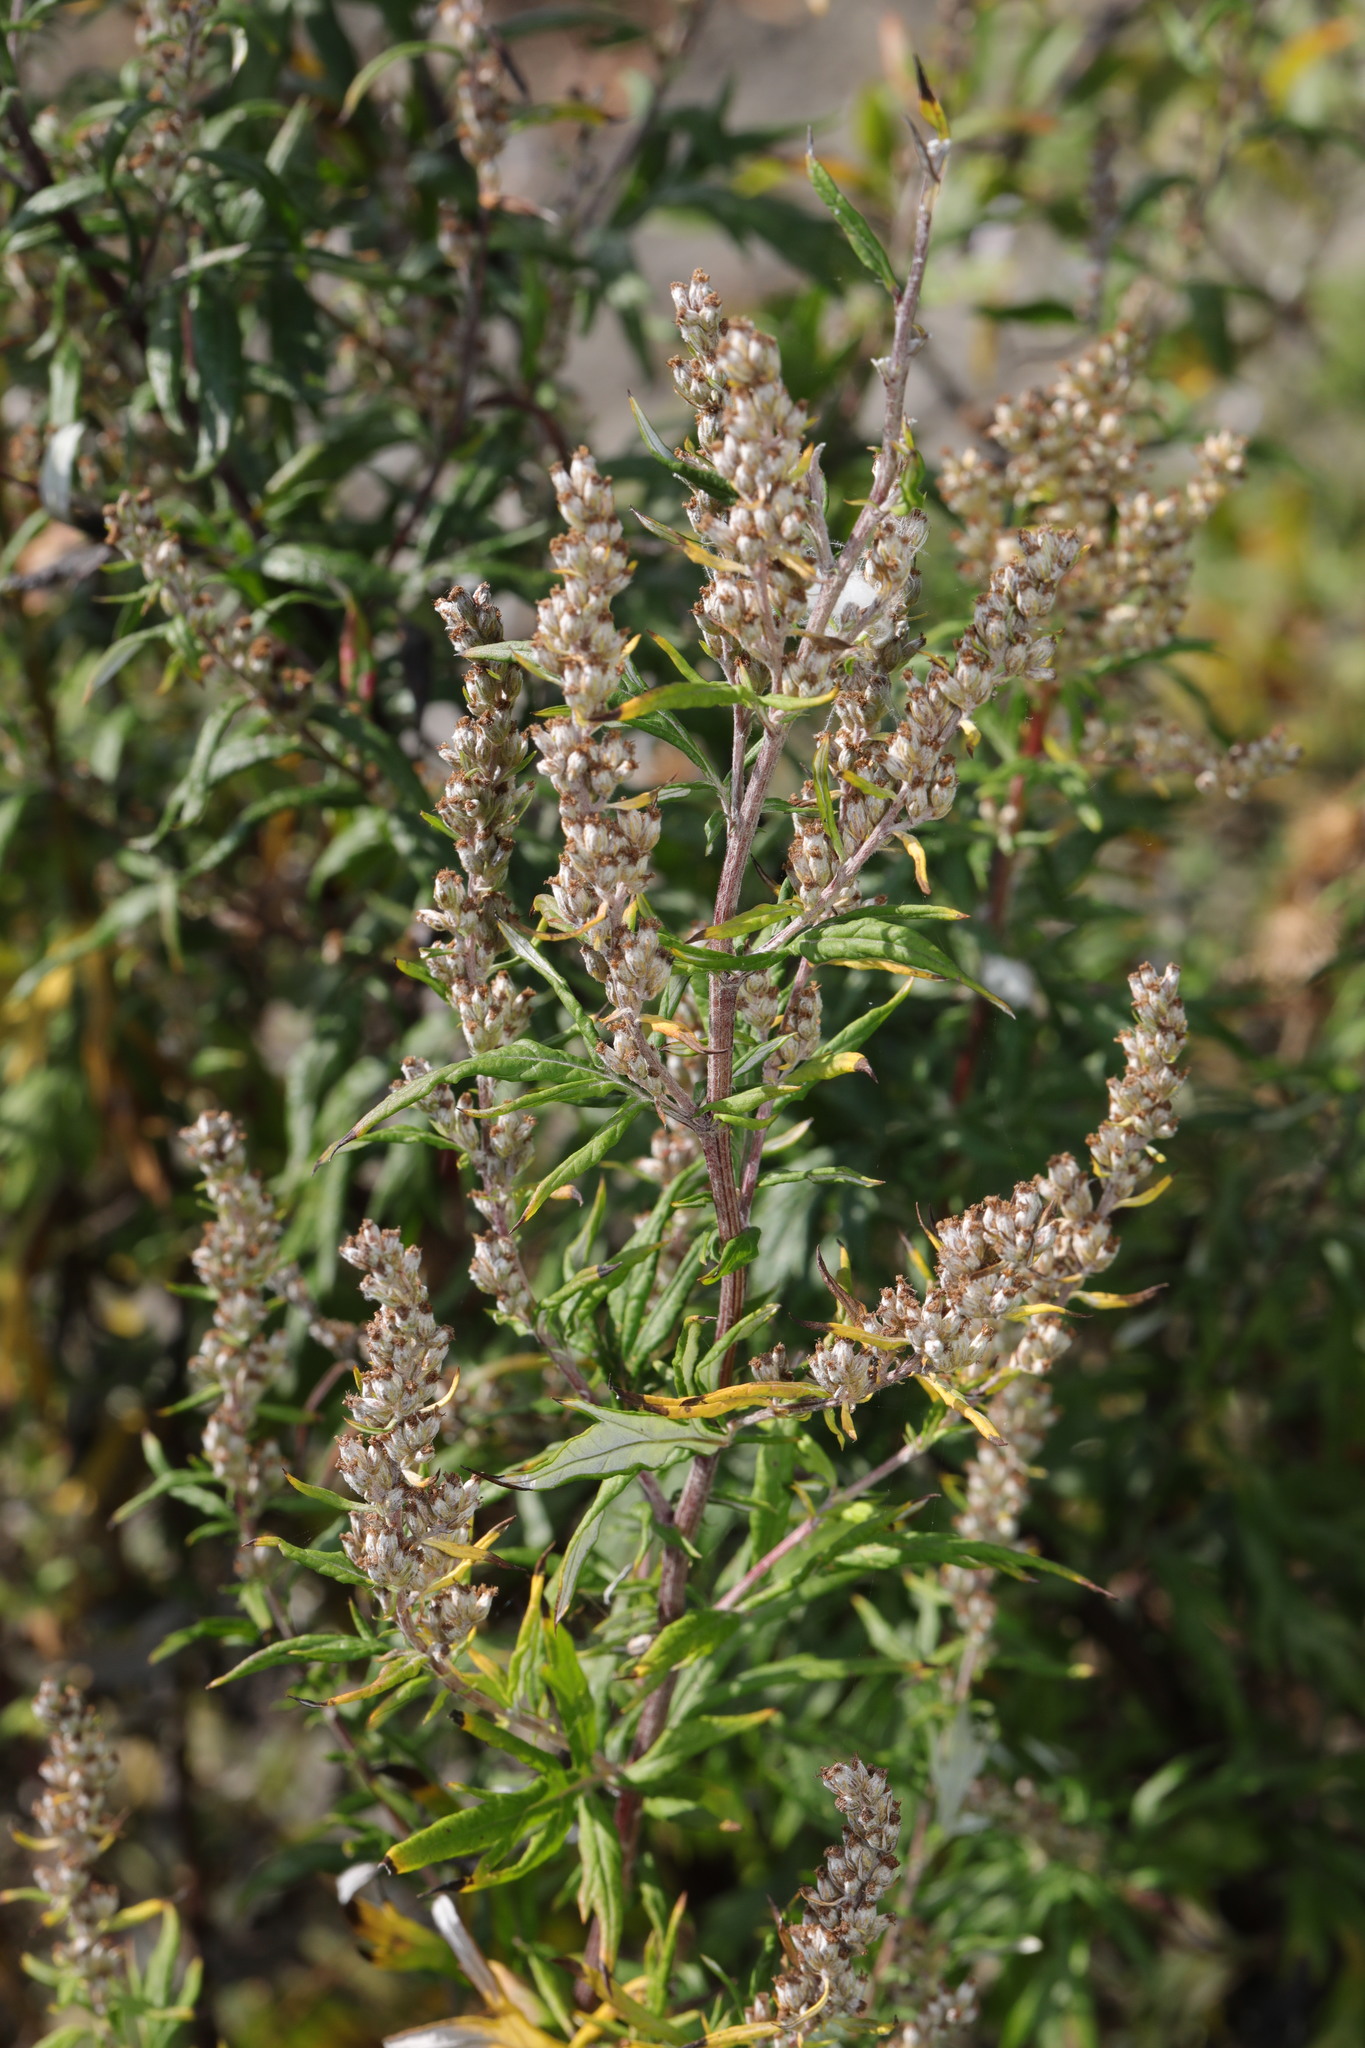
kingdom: Plantae
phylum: Tracheophyta
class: Magnoliopsida
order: Asterales
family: Asteraceae
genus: Artemisia
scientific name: Artemisia vulgaris
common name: Mugwort
